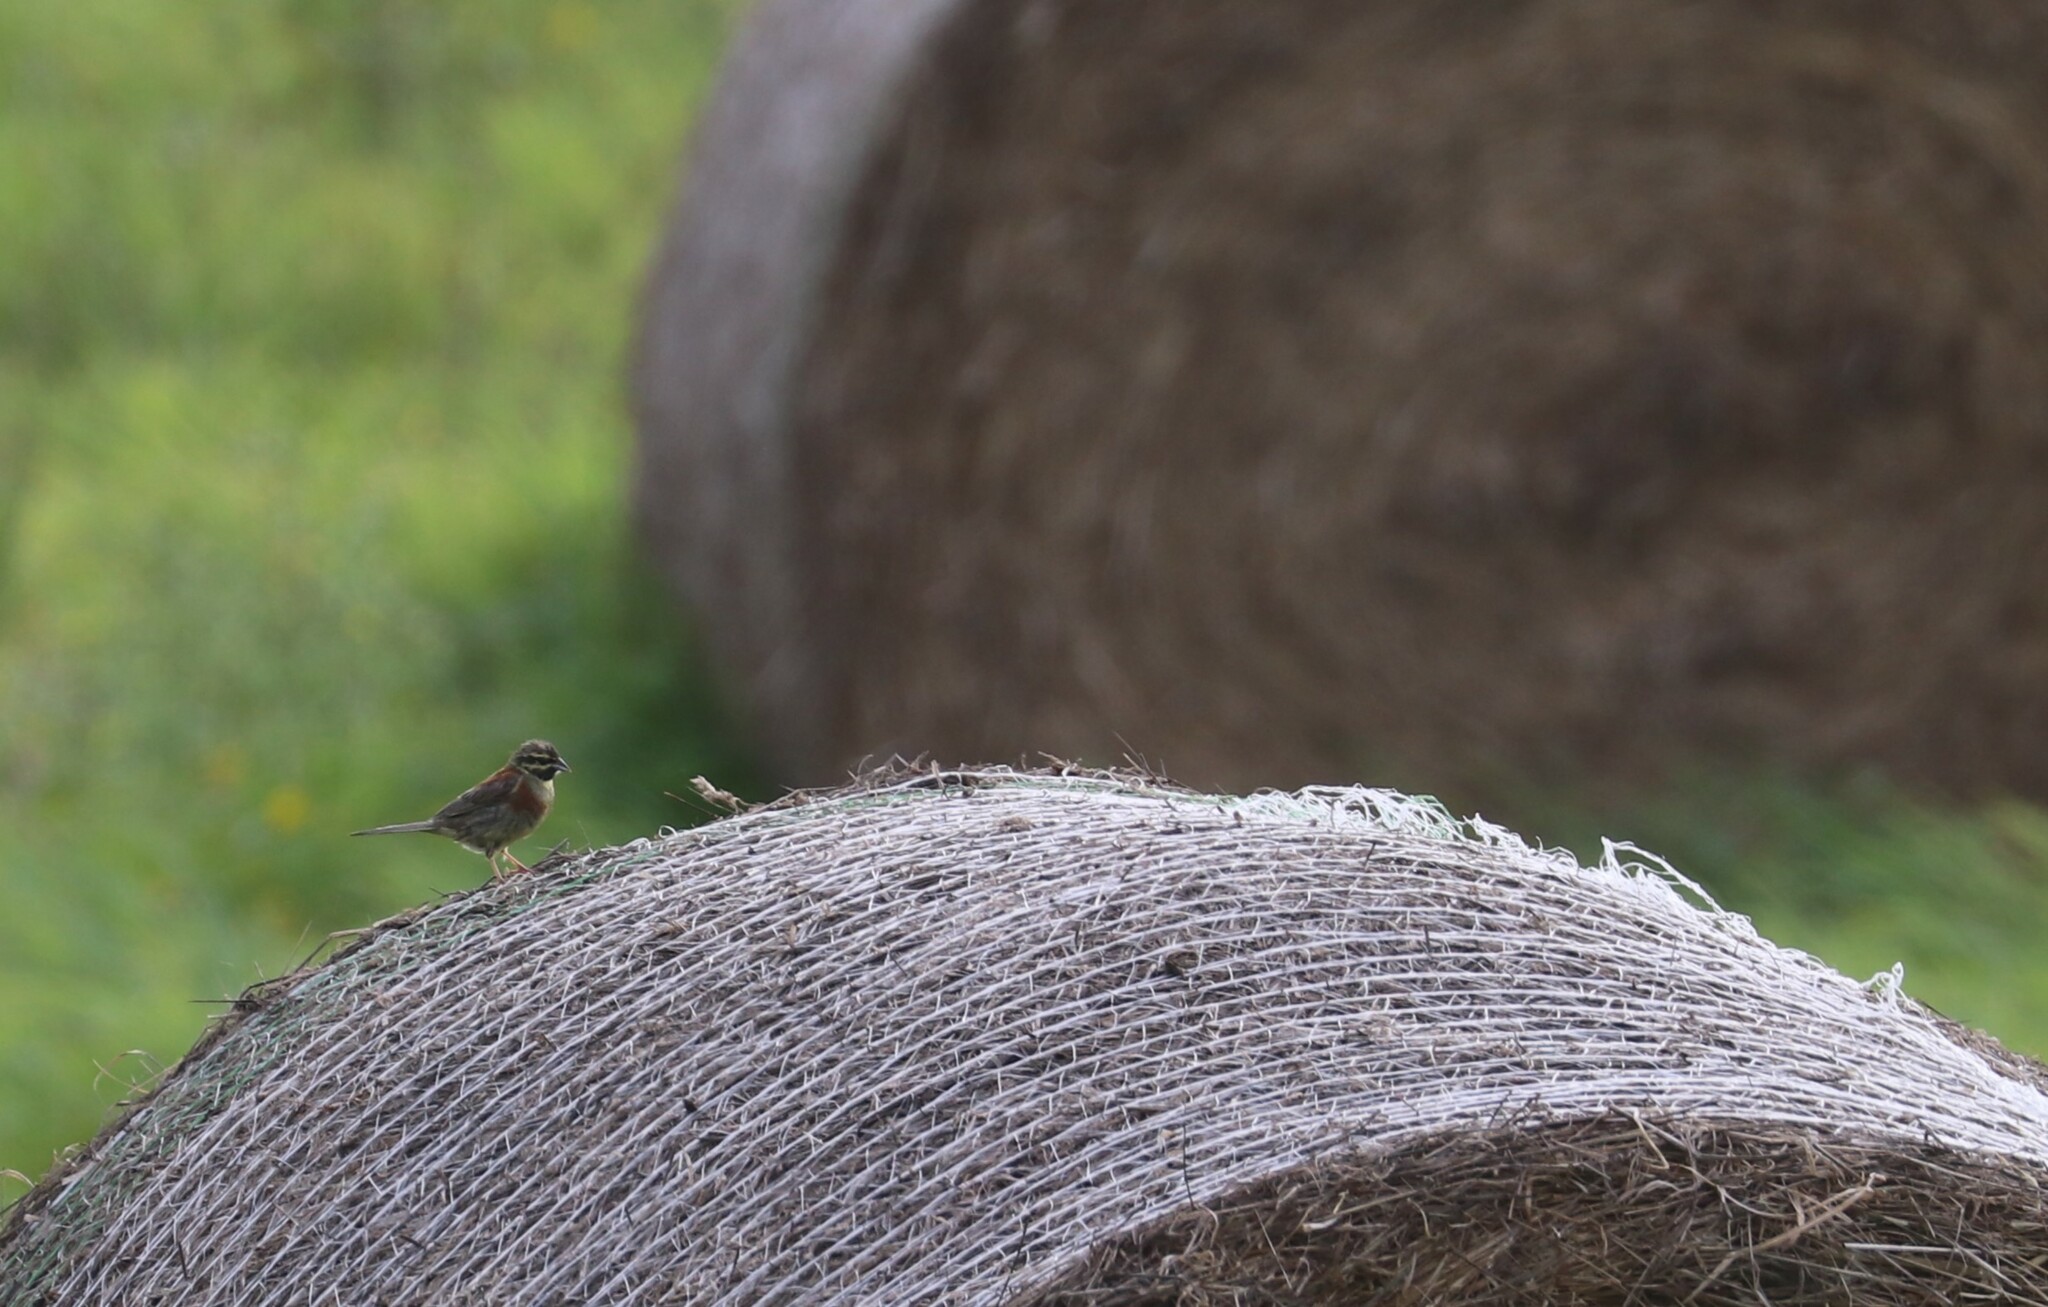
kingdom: Animalia
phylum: Chordata
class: Aves
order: Passeriformes
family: Emberizidae
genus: Emberiza
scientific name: Emberiza cirlus
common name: Cirl bunting
